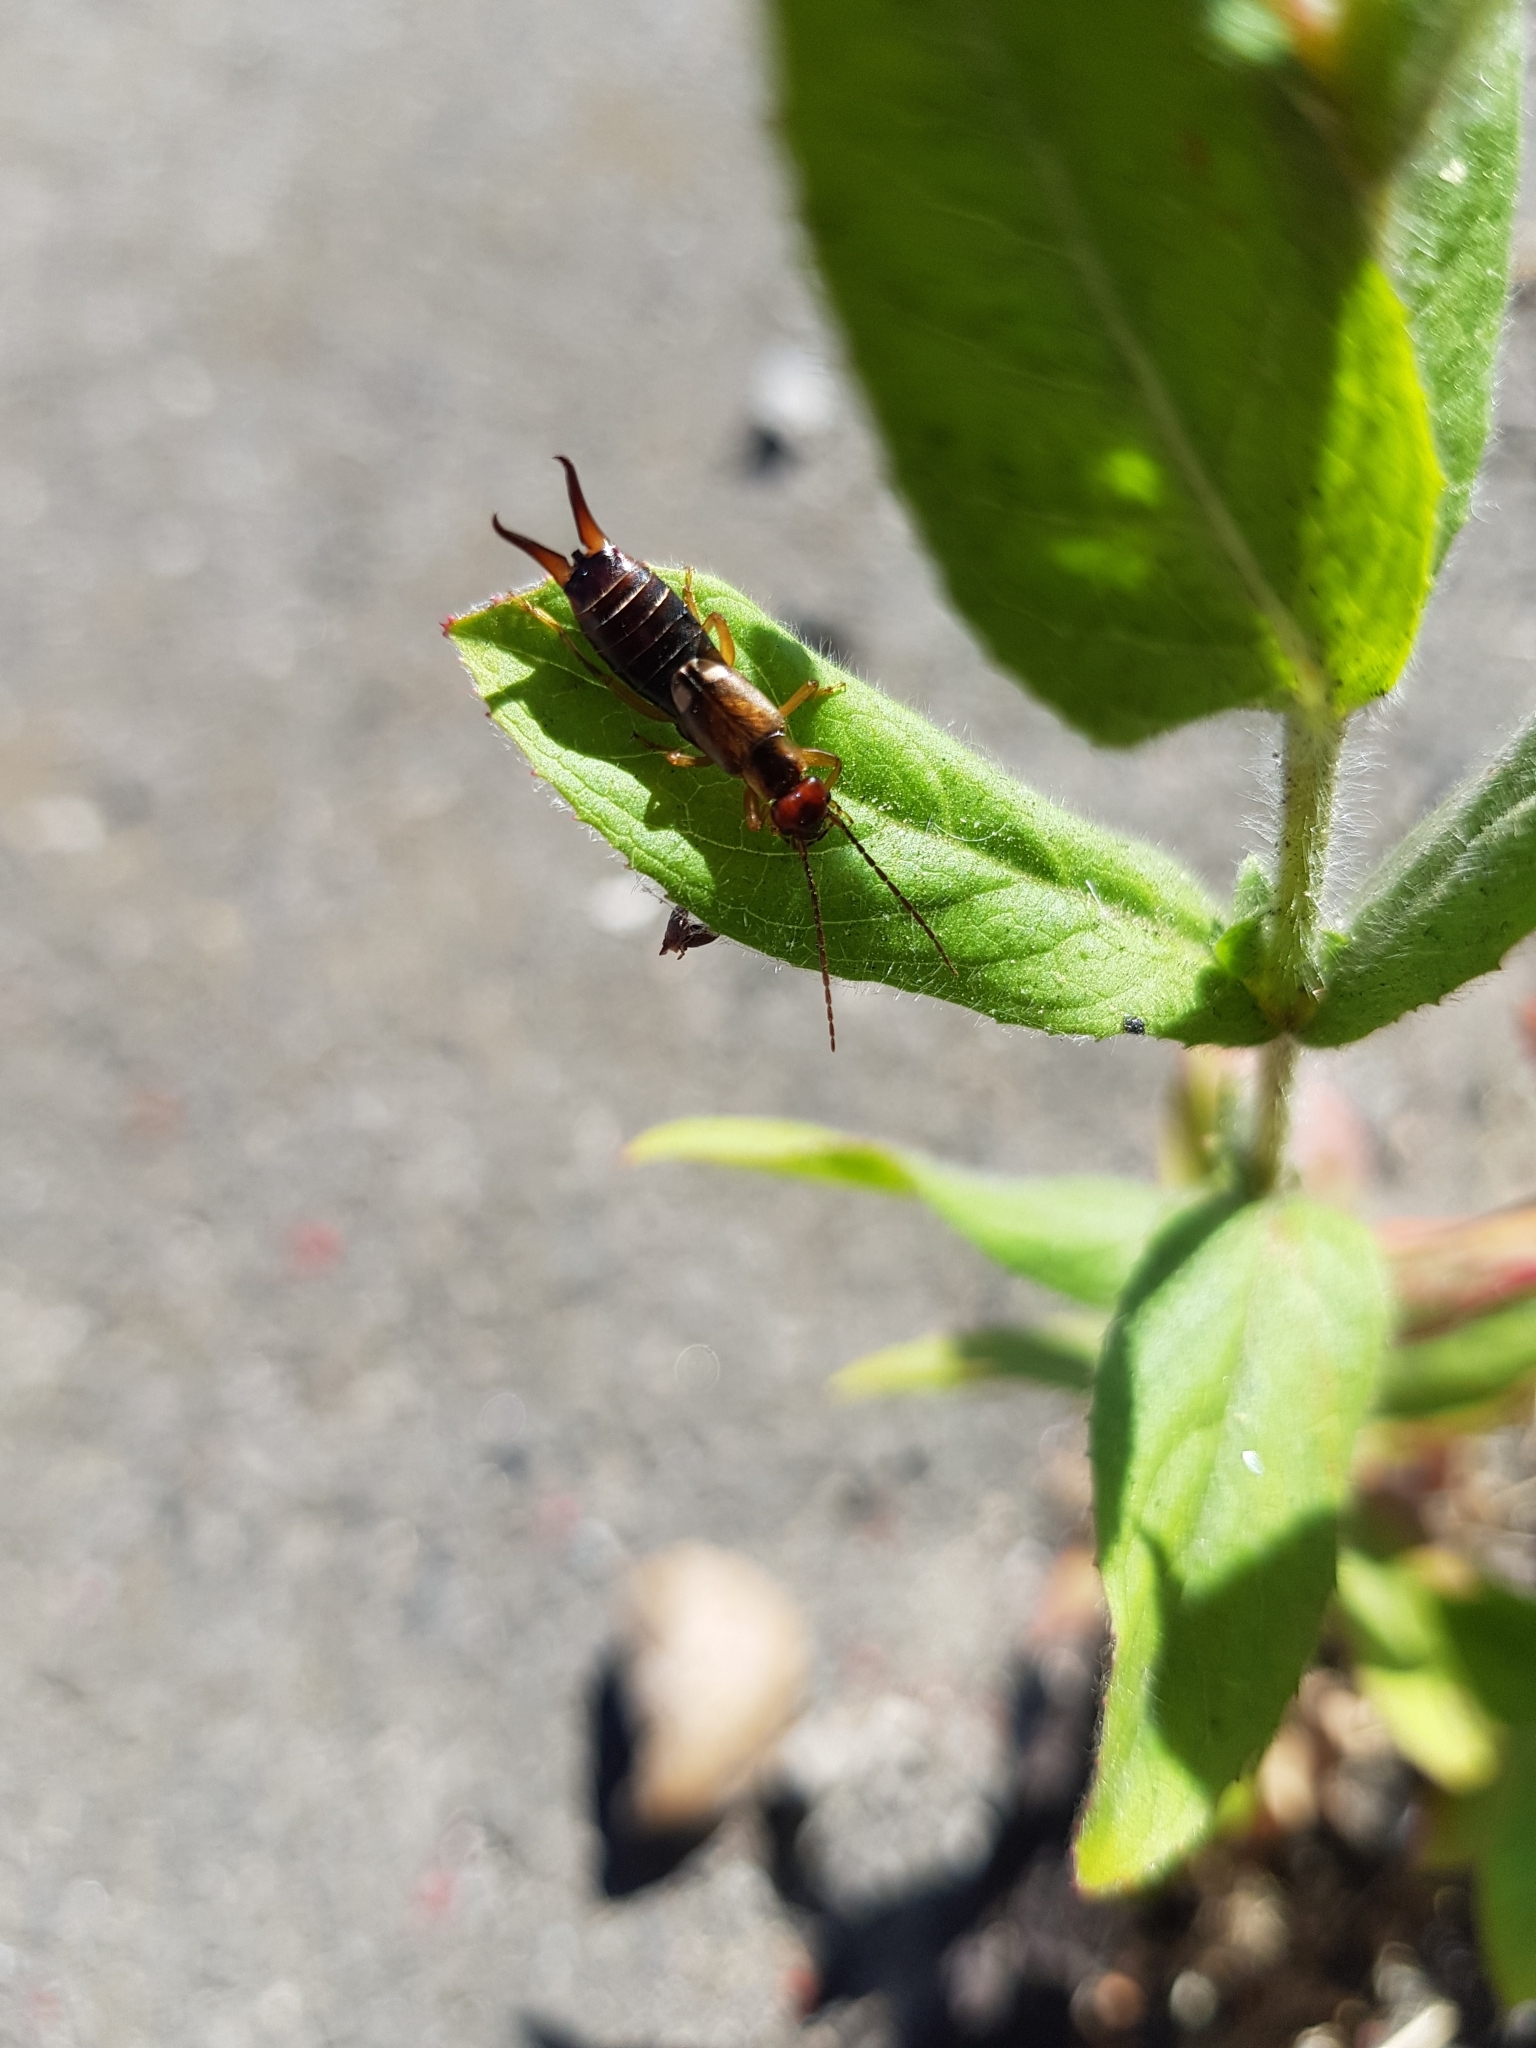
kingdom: Animalia
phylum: Arthropoda
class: Insecta
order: Dermaptera
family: Forficulidae
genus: Forficula
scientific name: Forficula
